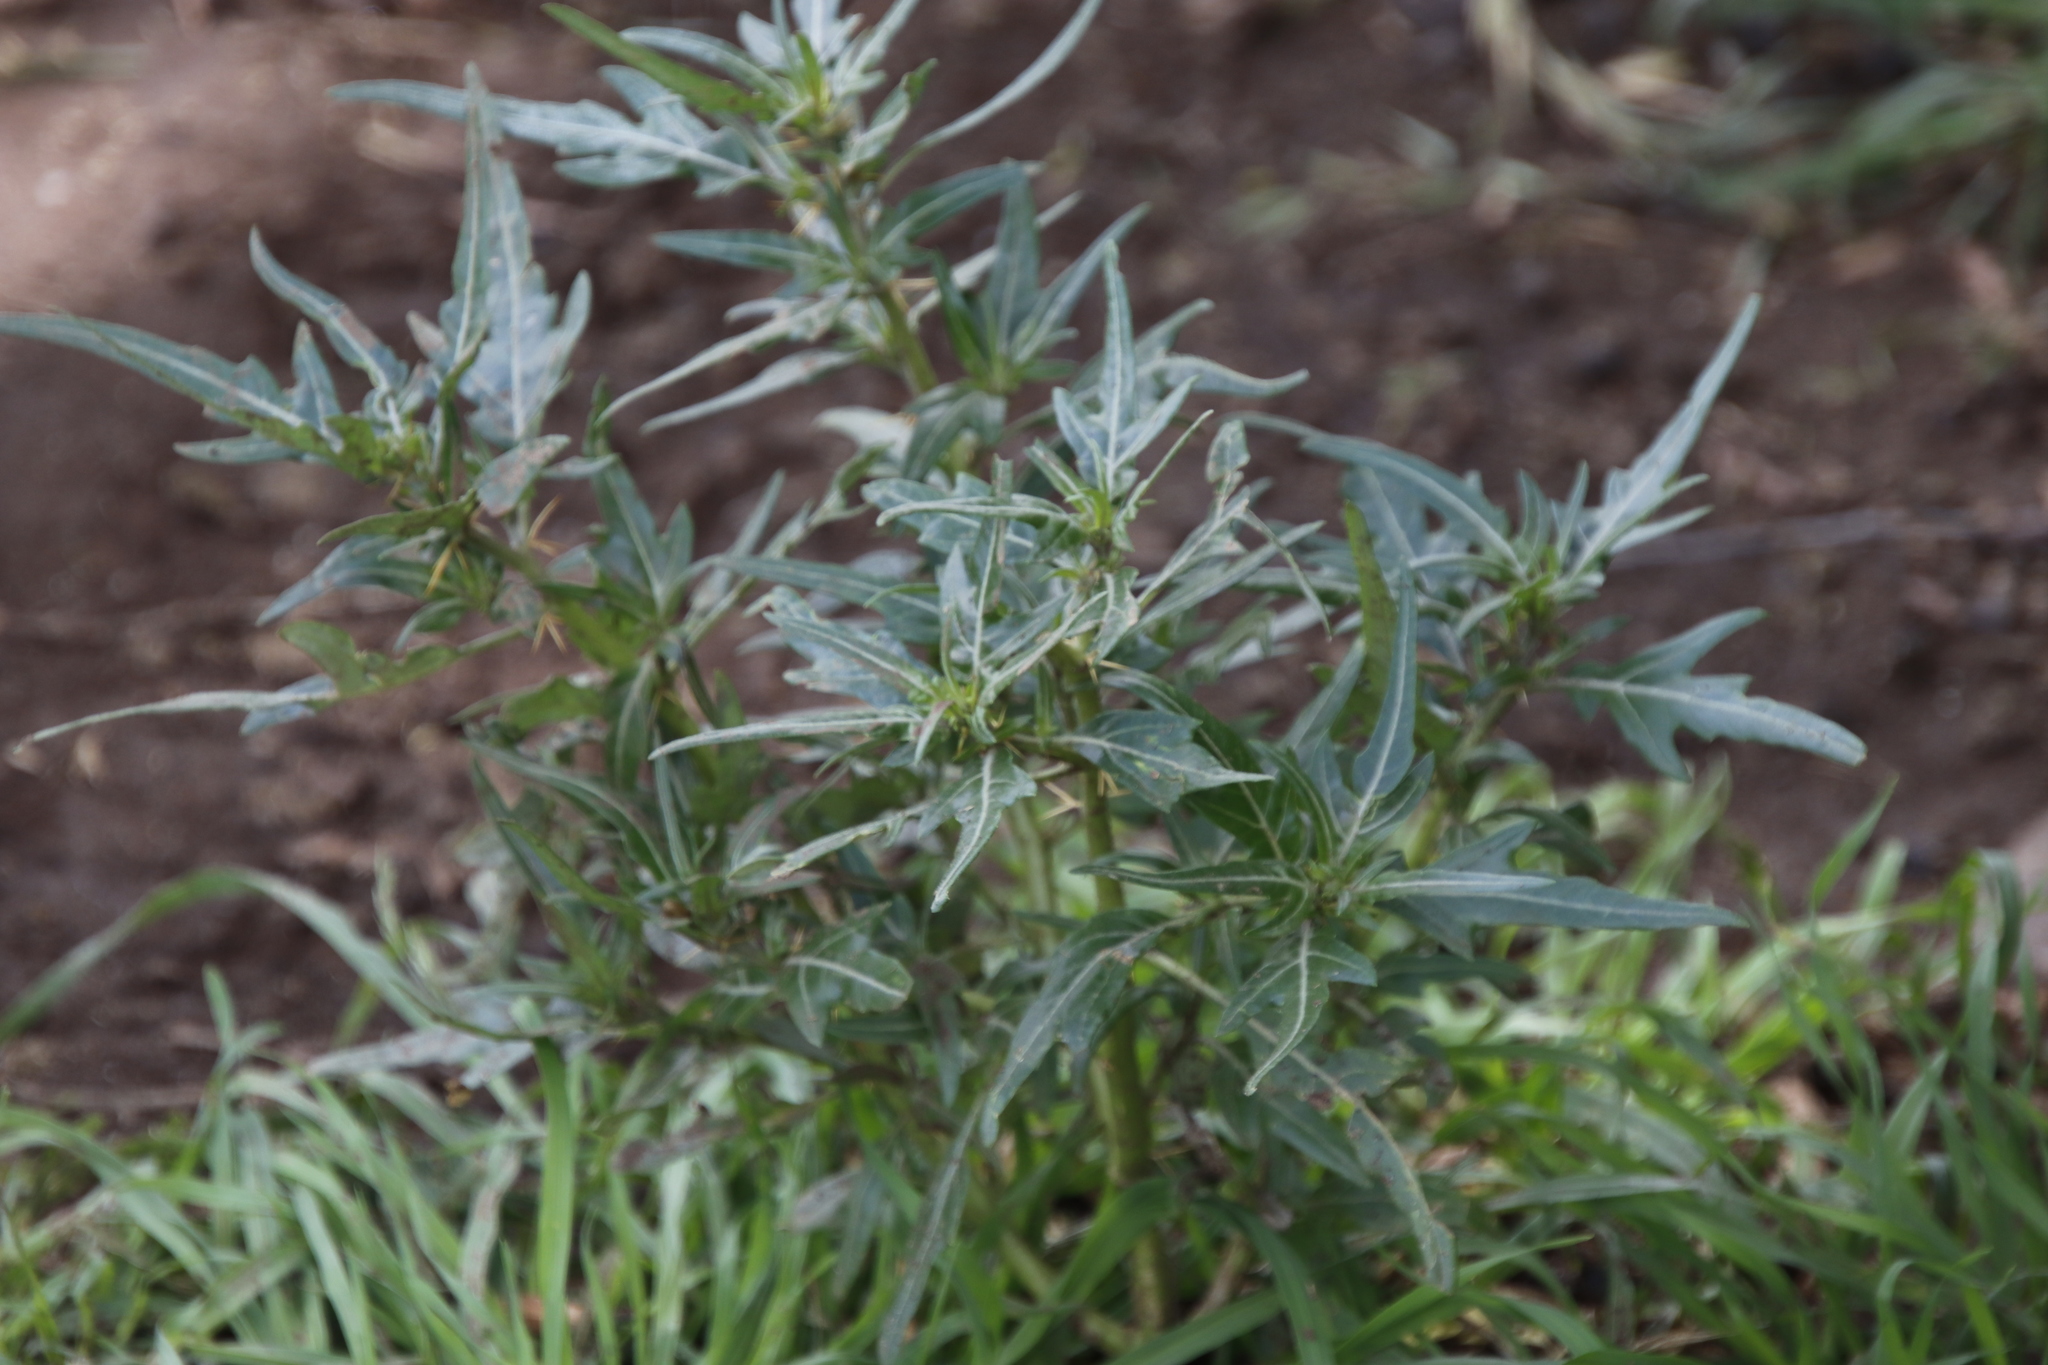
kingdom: Plantae
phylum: Tracheophyta
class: Magnoliopsida
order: Asterales
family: Asteraceae
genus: Xanthium
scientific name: Xanthium spinosum
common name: Spiny cocklebur
